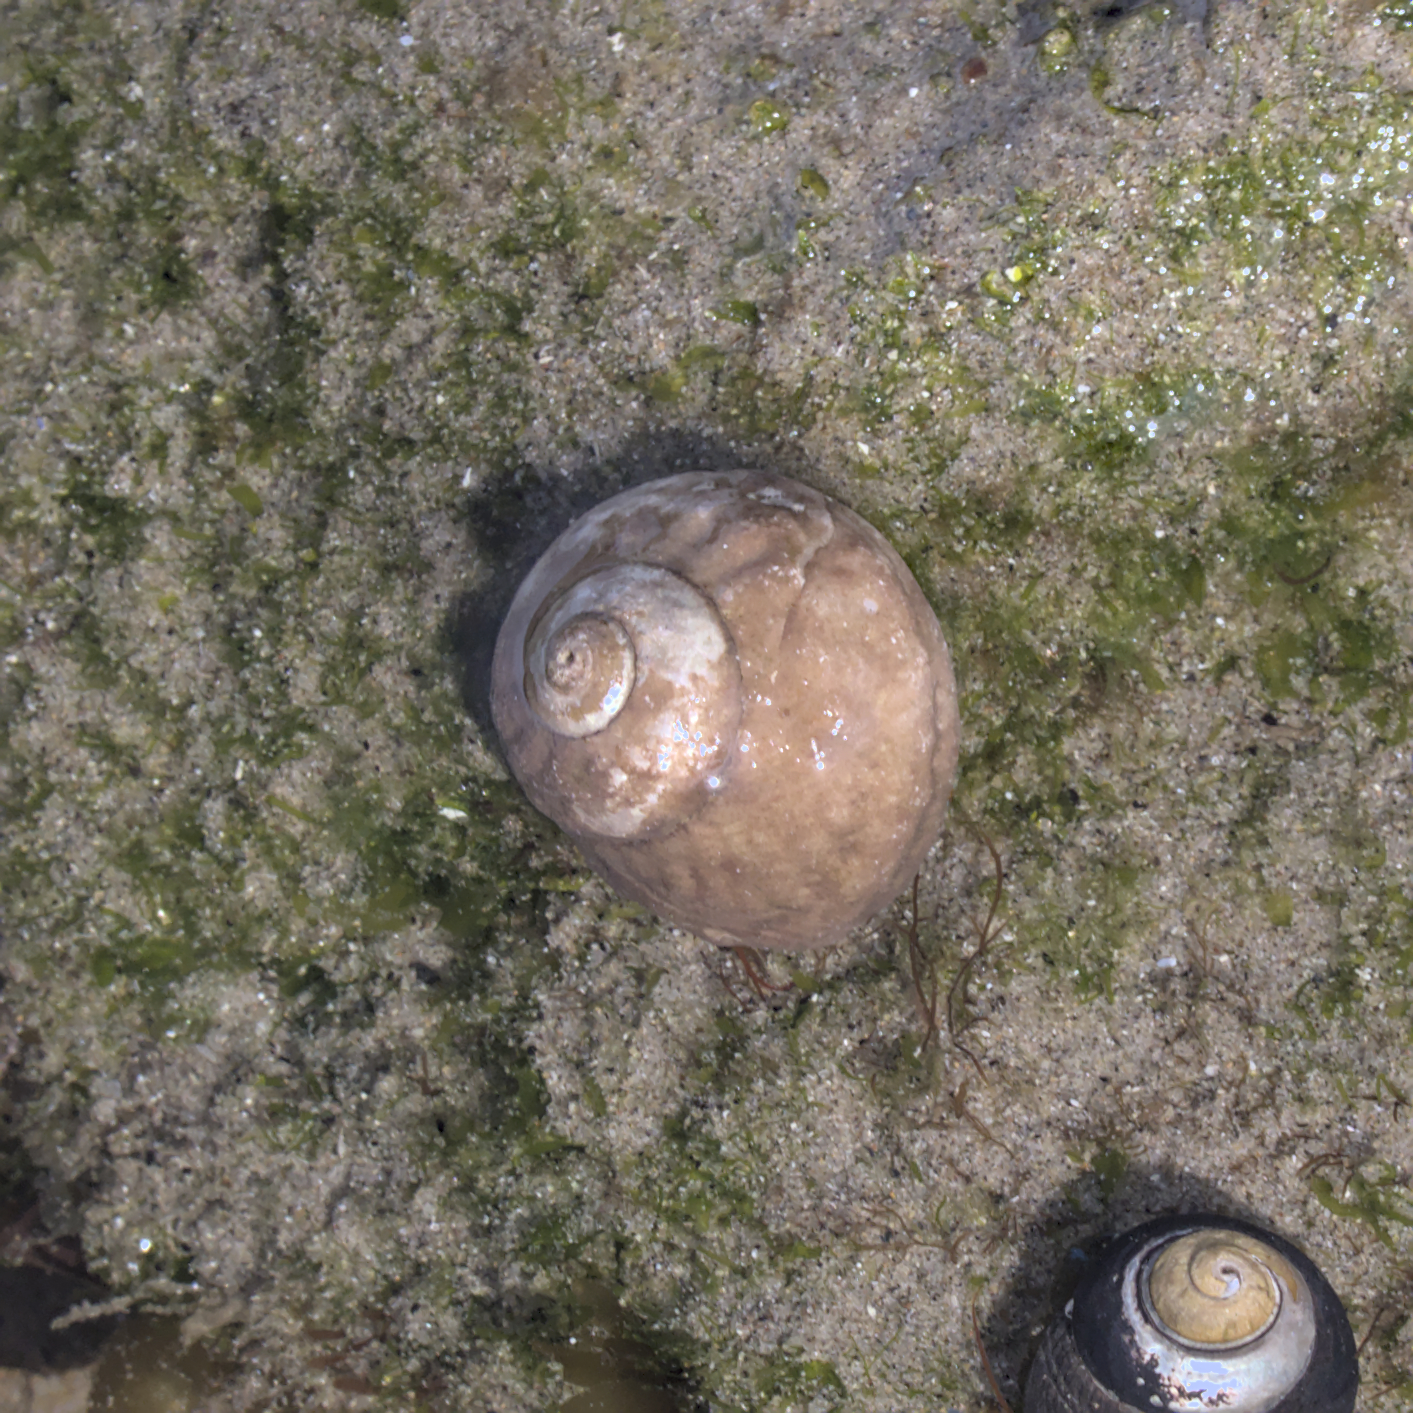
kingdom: Animalia
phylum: Mollusca
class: Gastropoda
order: Trochida
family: Tegulidae
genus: Tegula
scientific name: Tegula aureotincta
